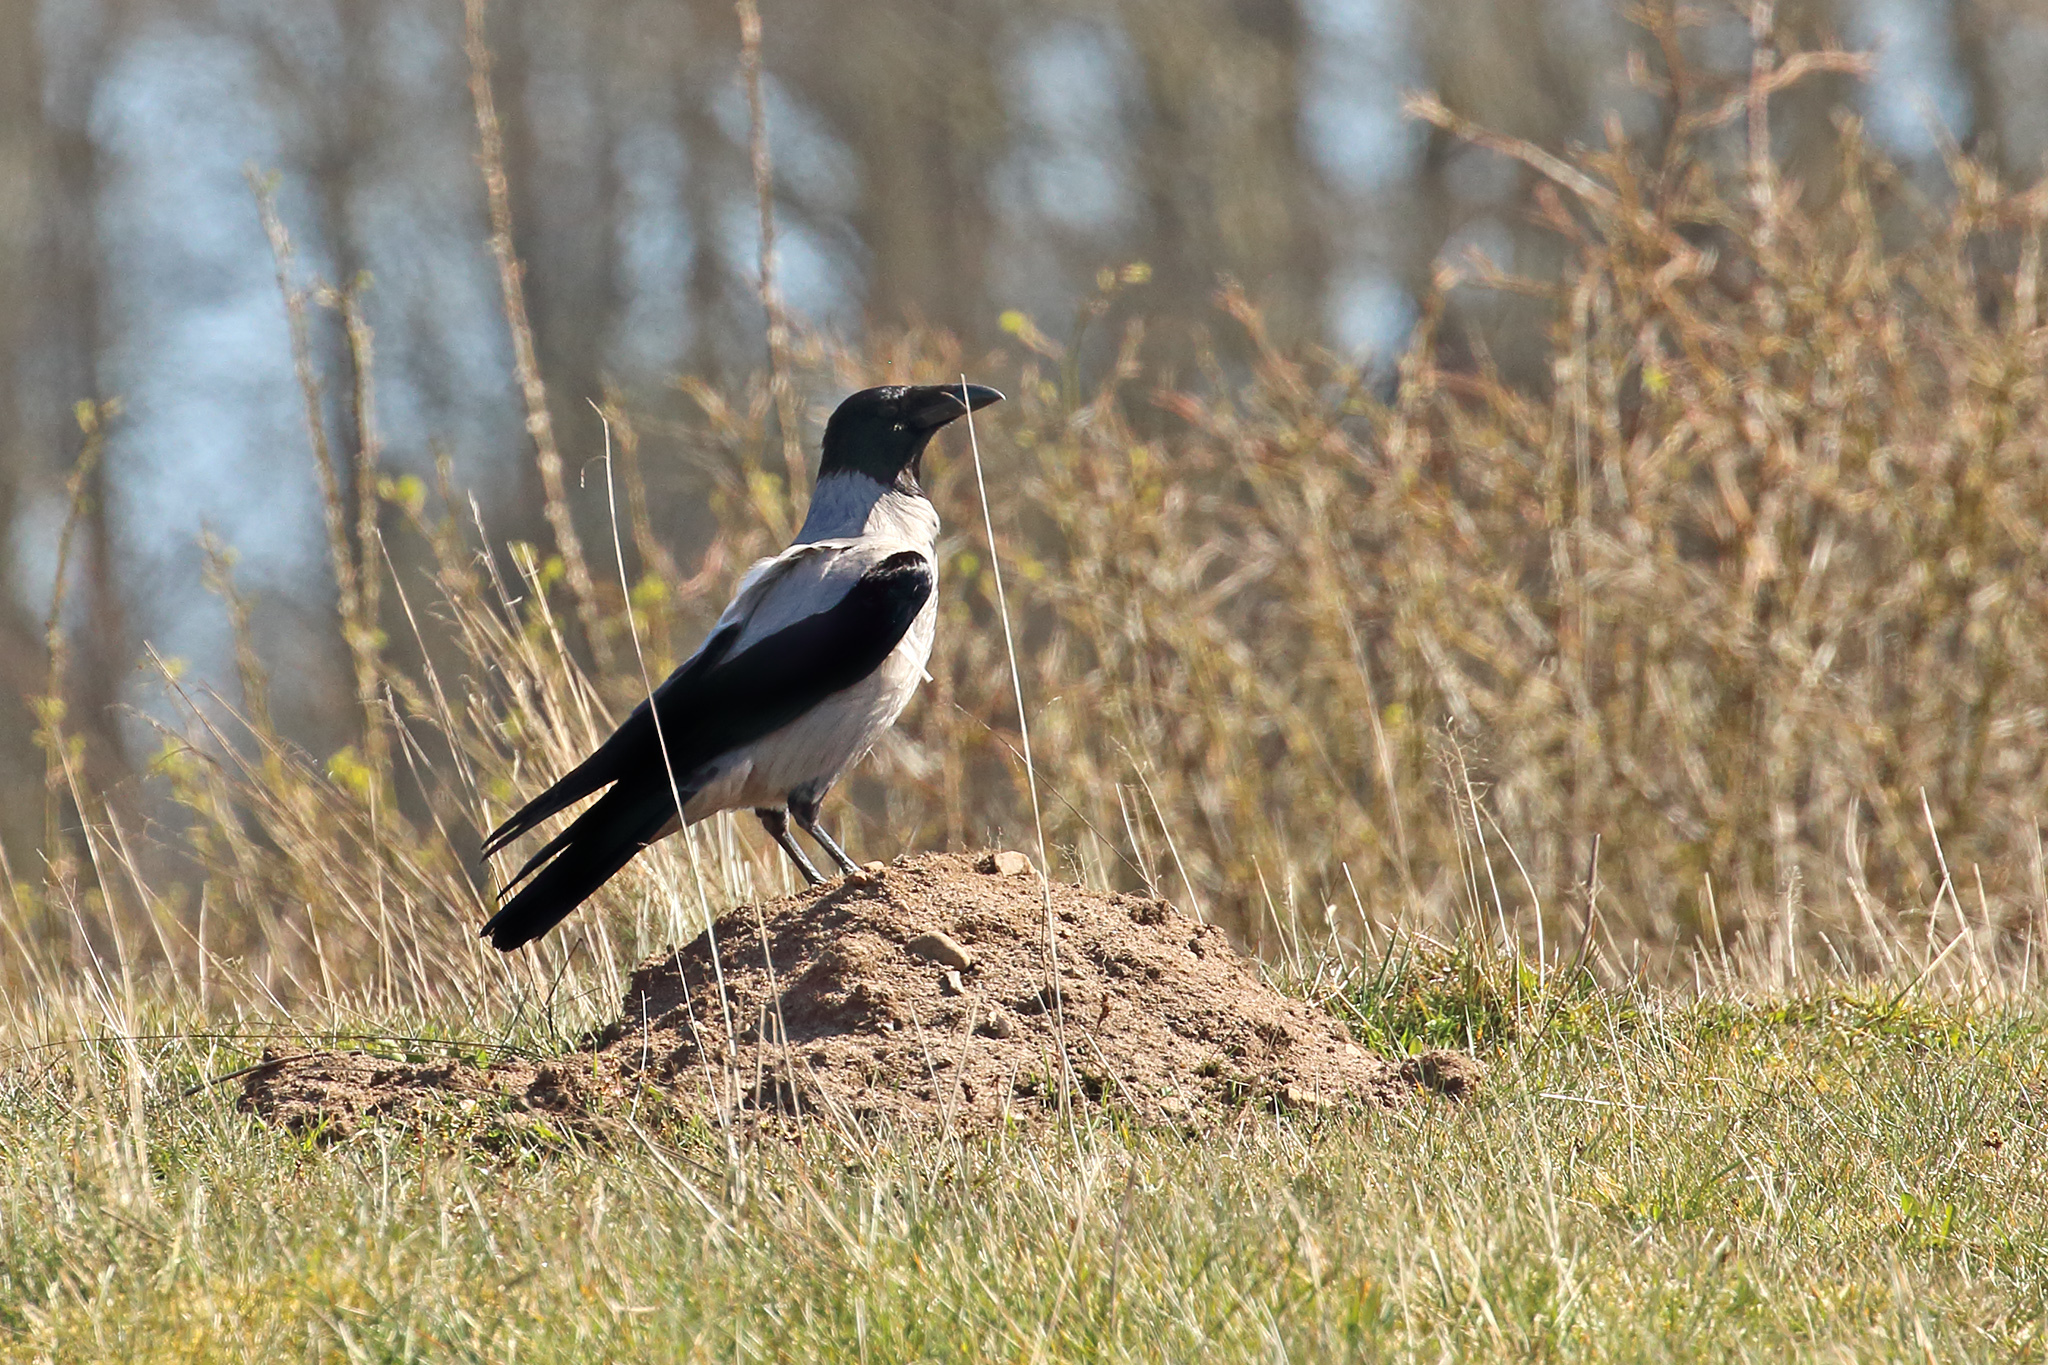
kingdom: Animalia
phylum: Chordata
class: Aves
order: Passeriformes
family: Corvidae
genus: Corvus
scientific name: Corvus cornix
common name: Hooded crow
